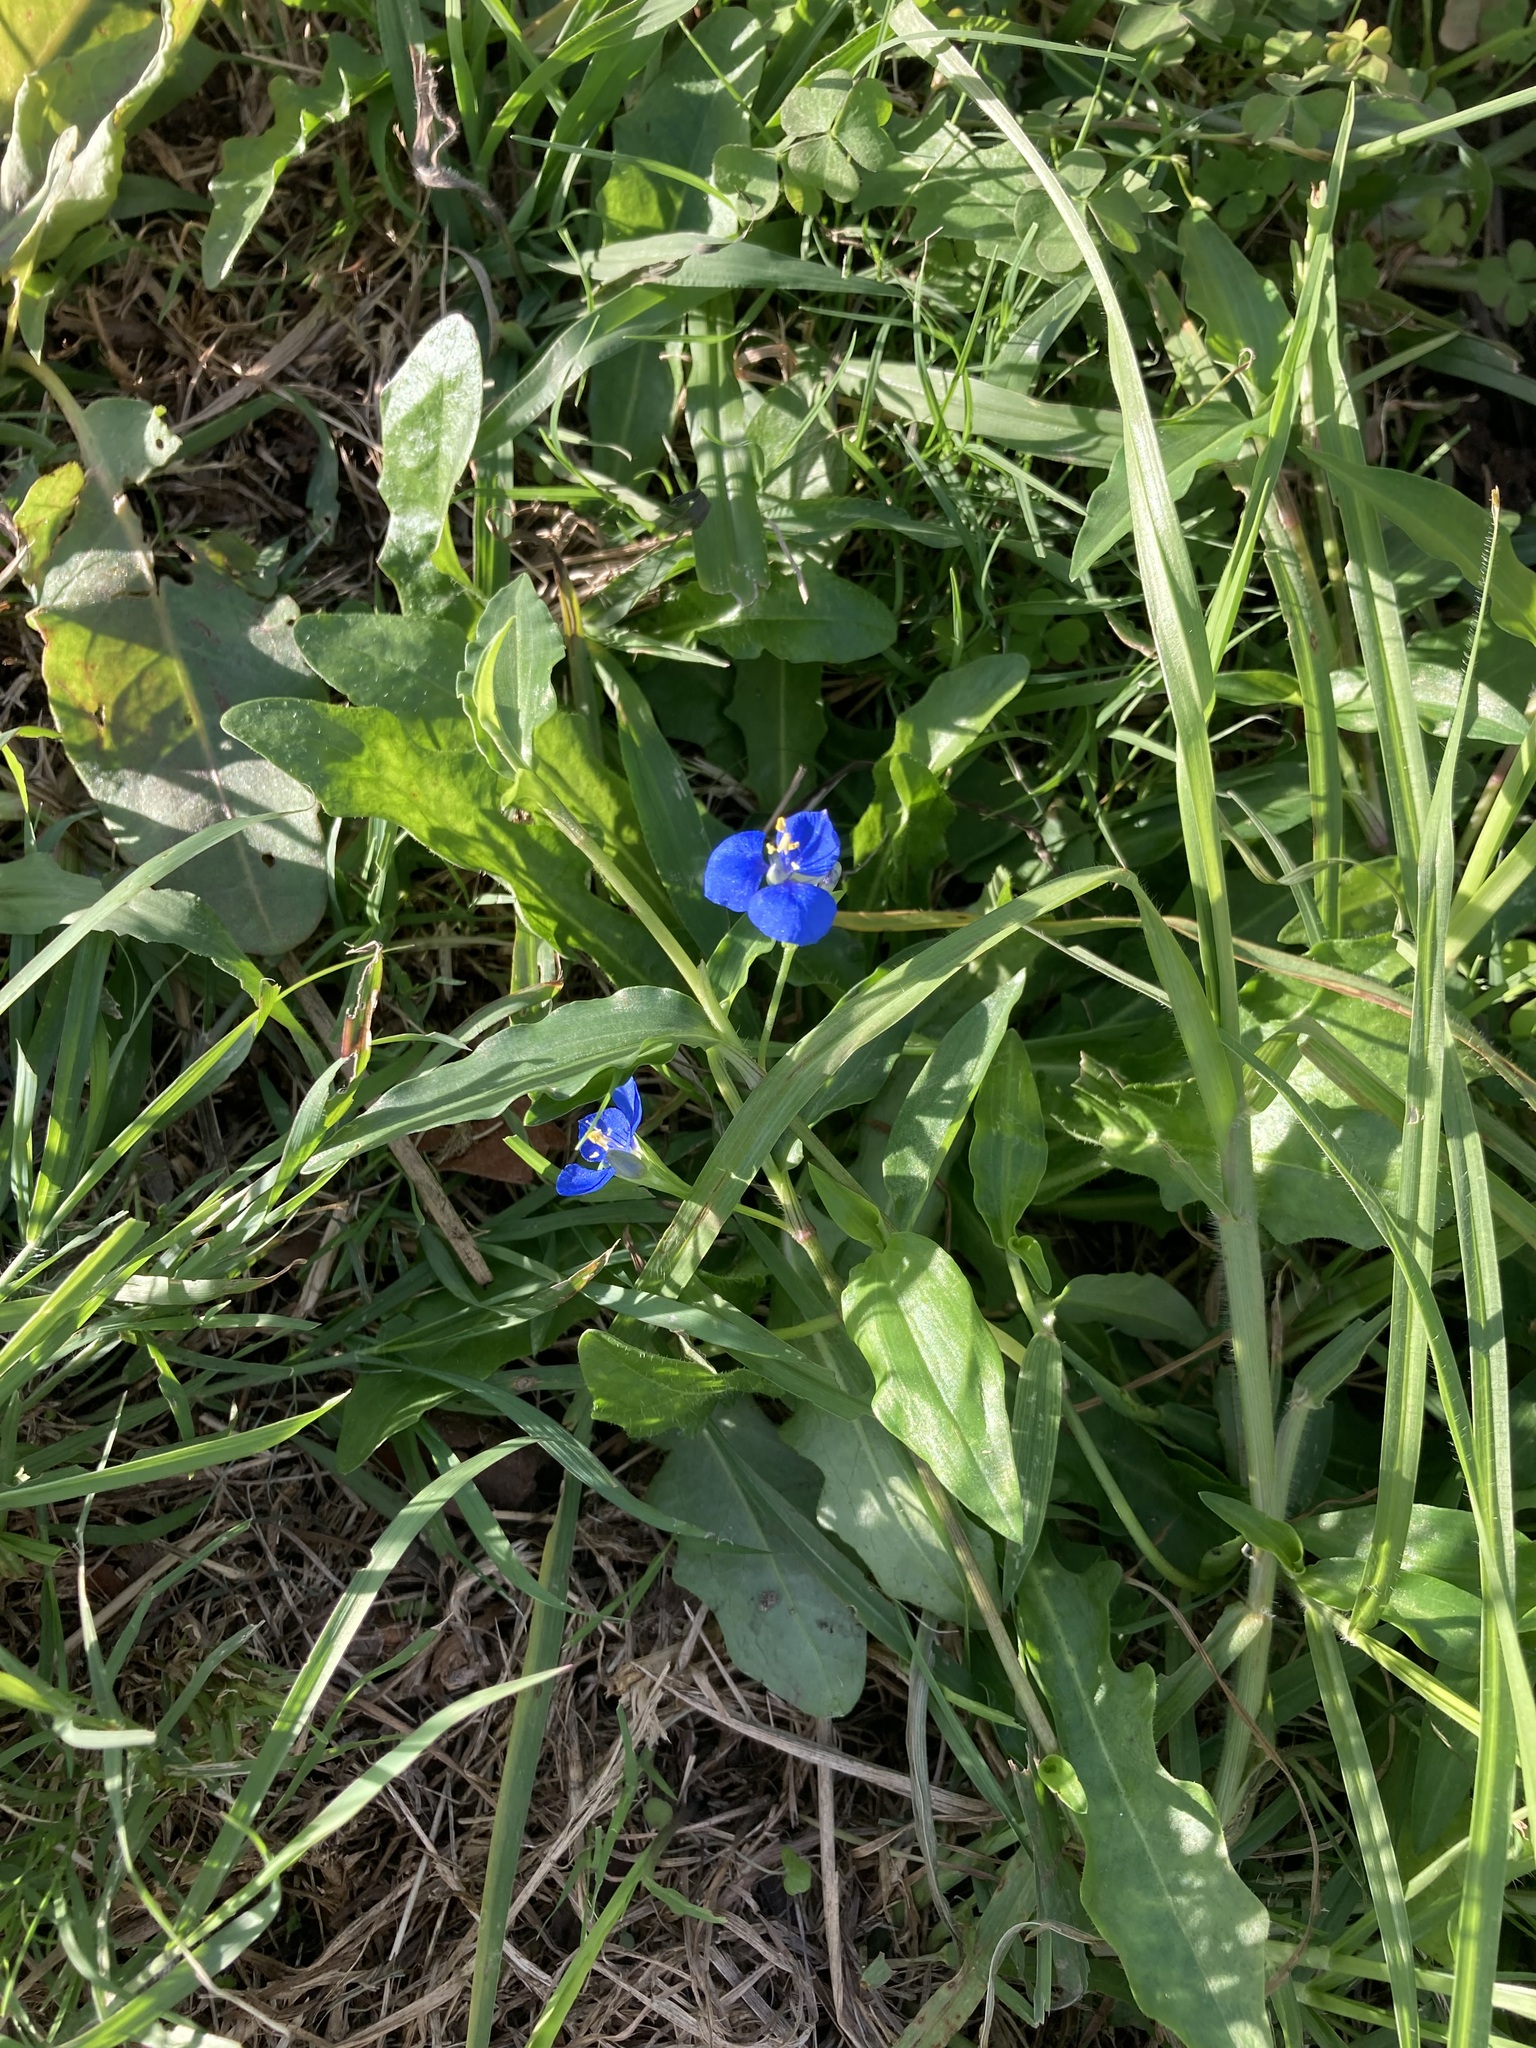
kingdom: Plantae
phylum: Tracheophyta
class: Liliopsida
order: Commelinales
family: Commelinaceae
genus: Commelina
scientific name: Commelina cyanea
